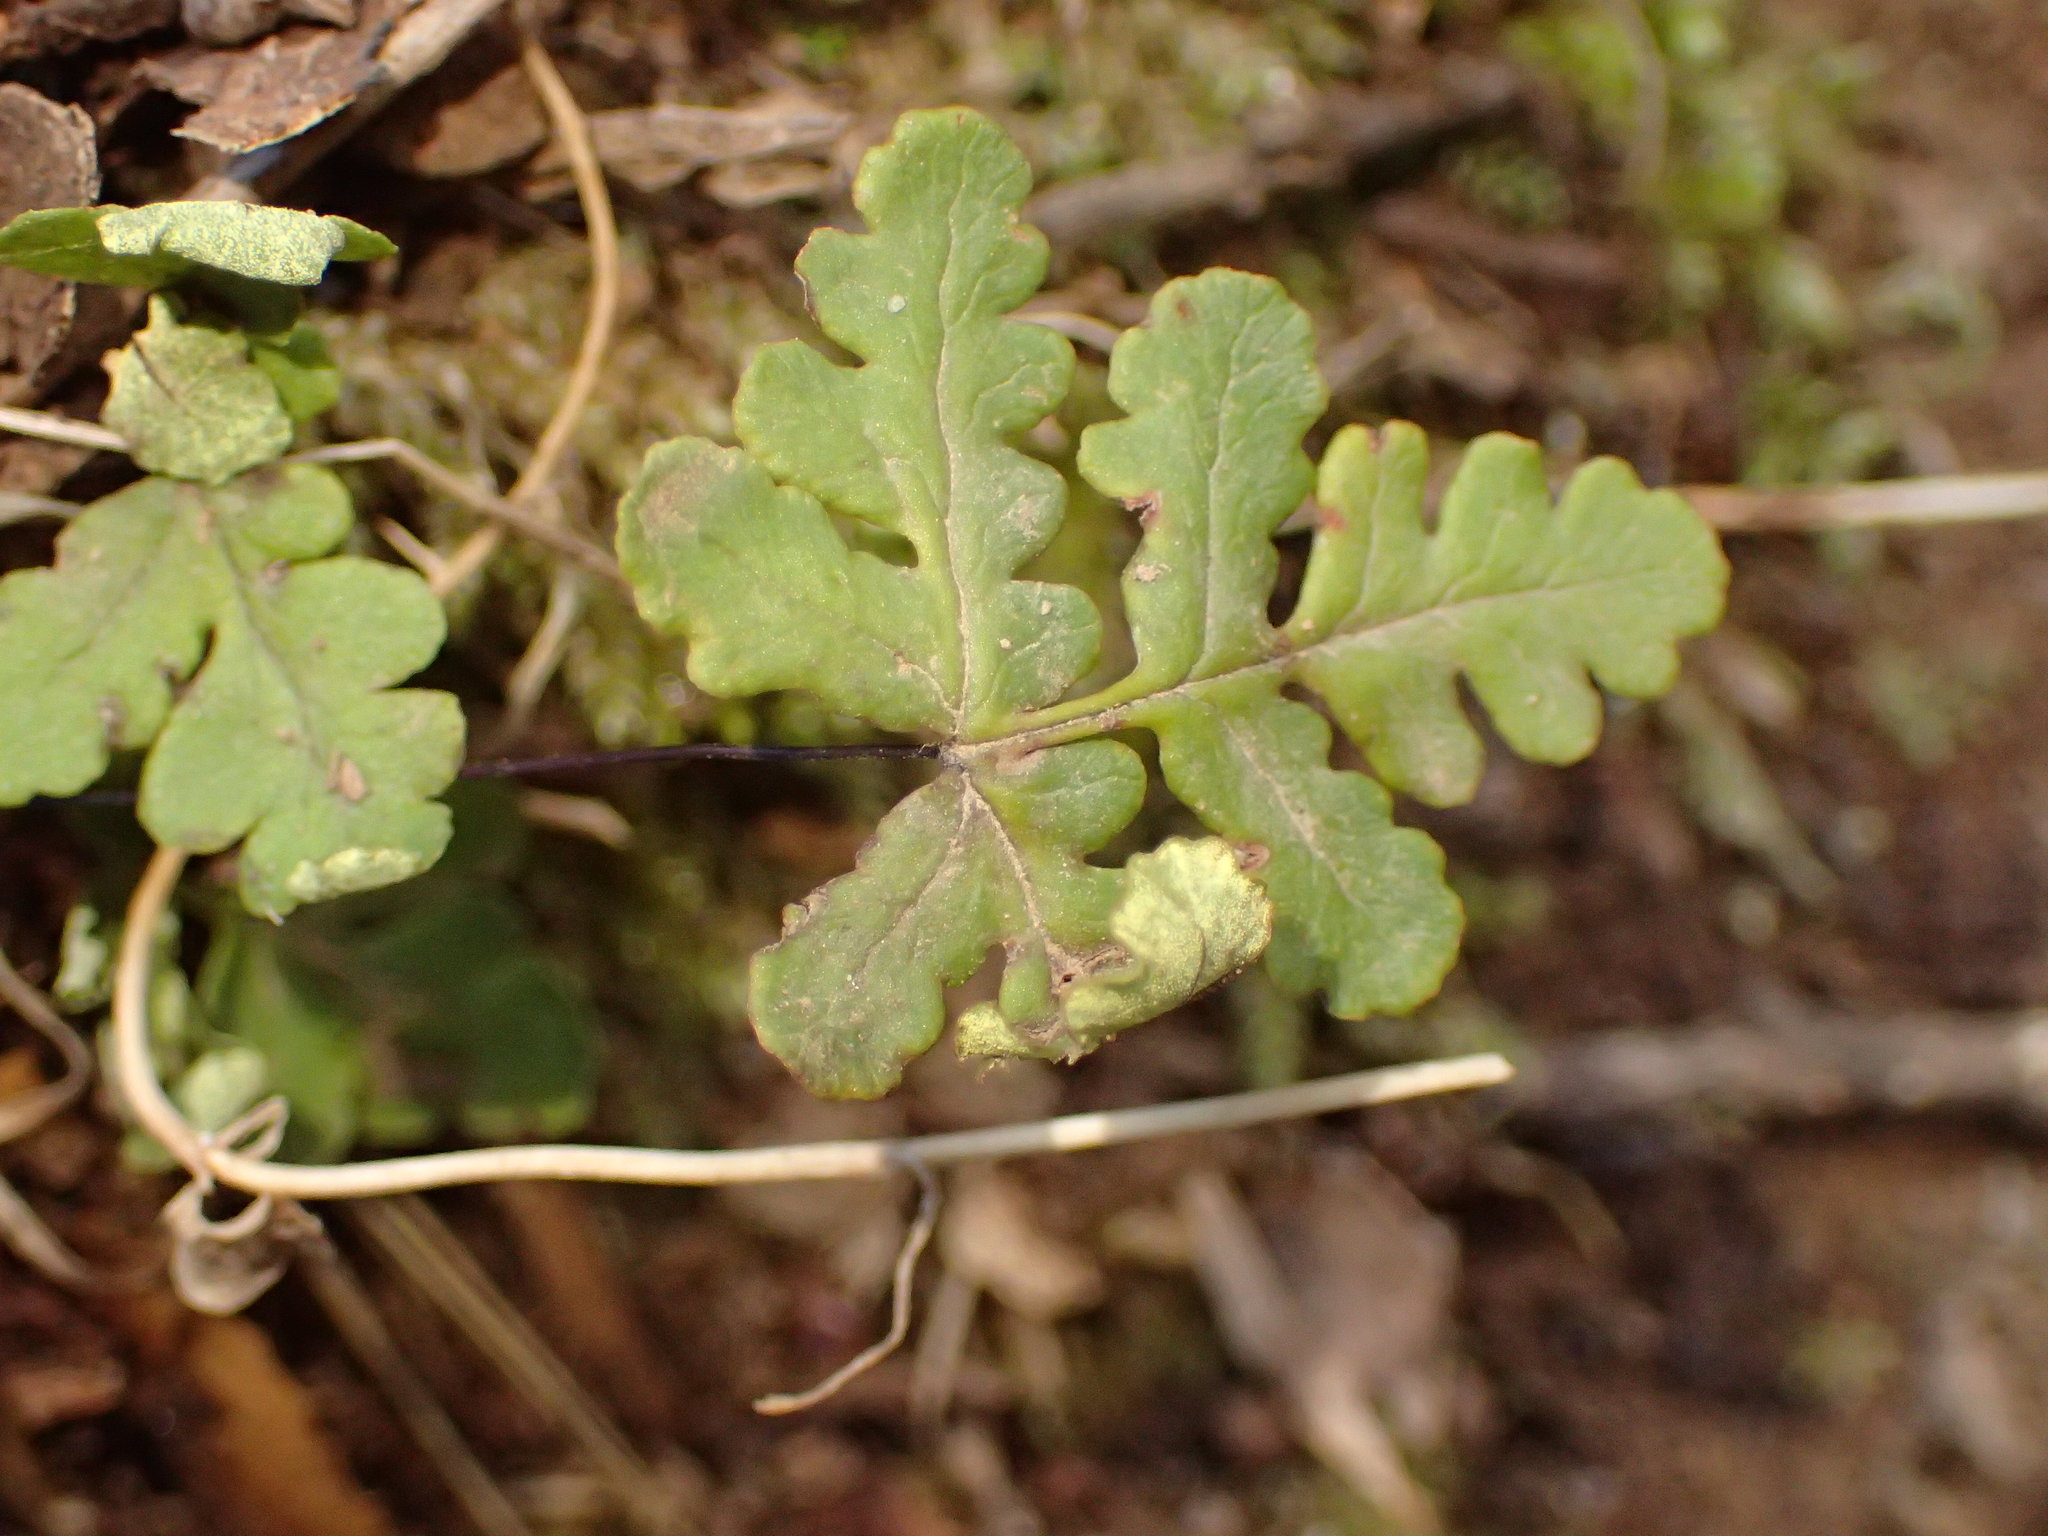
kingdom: Plantae
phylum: Tracheophyta
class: Polypodiopsida
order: Polypodiales
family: Pteridaceae
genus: Pentagramma
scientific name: Pentagramma triangularis
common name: Gold fern
